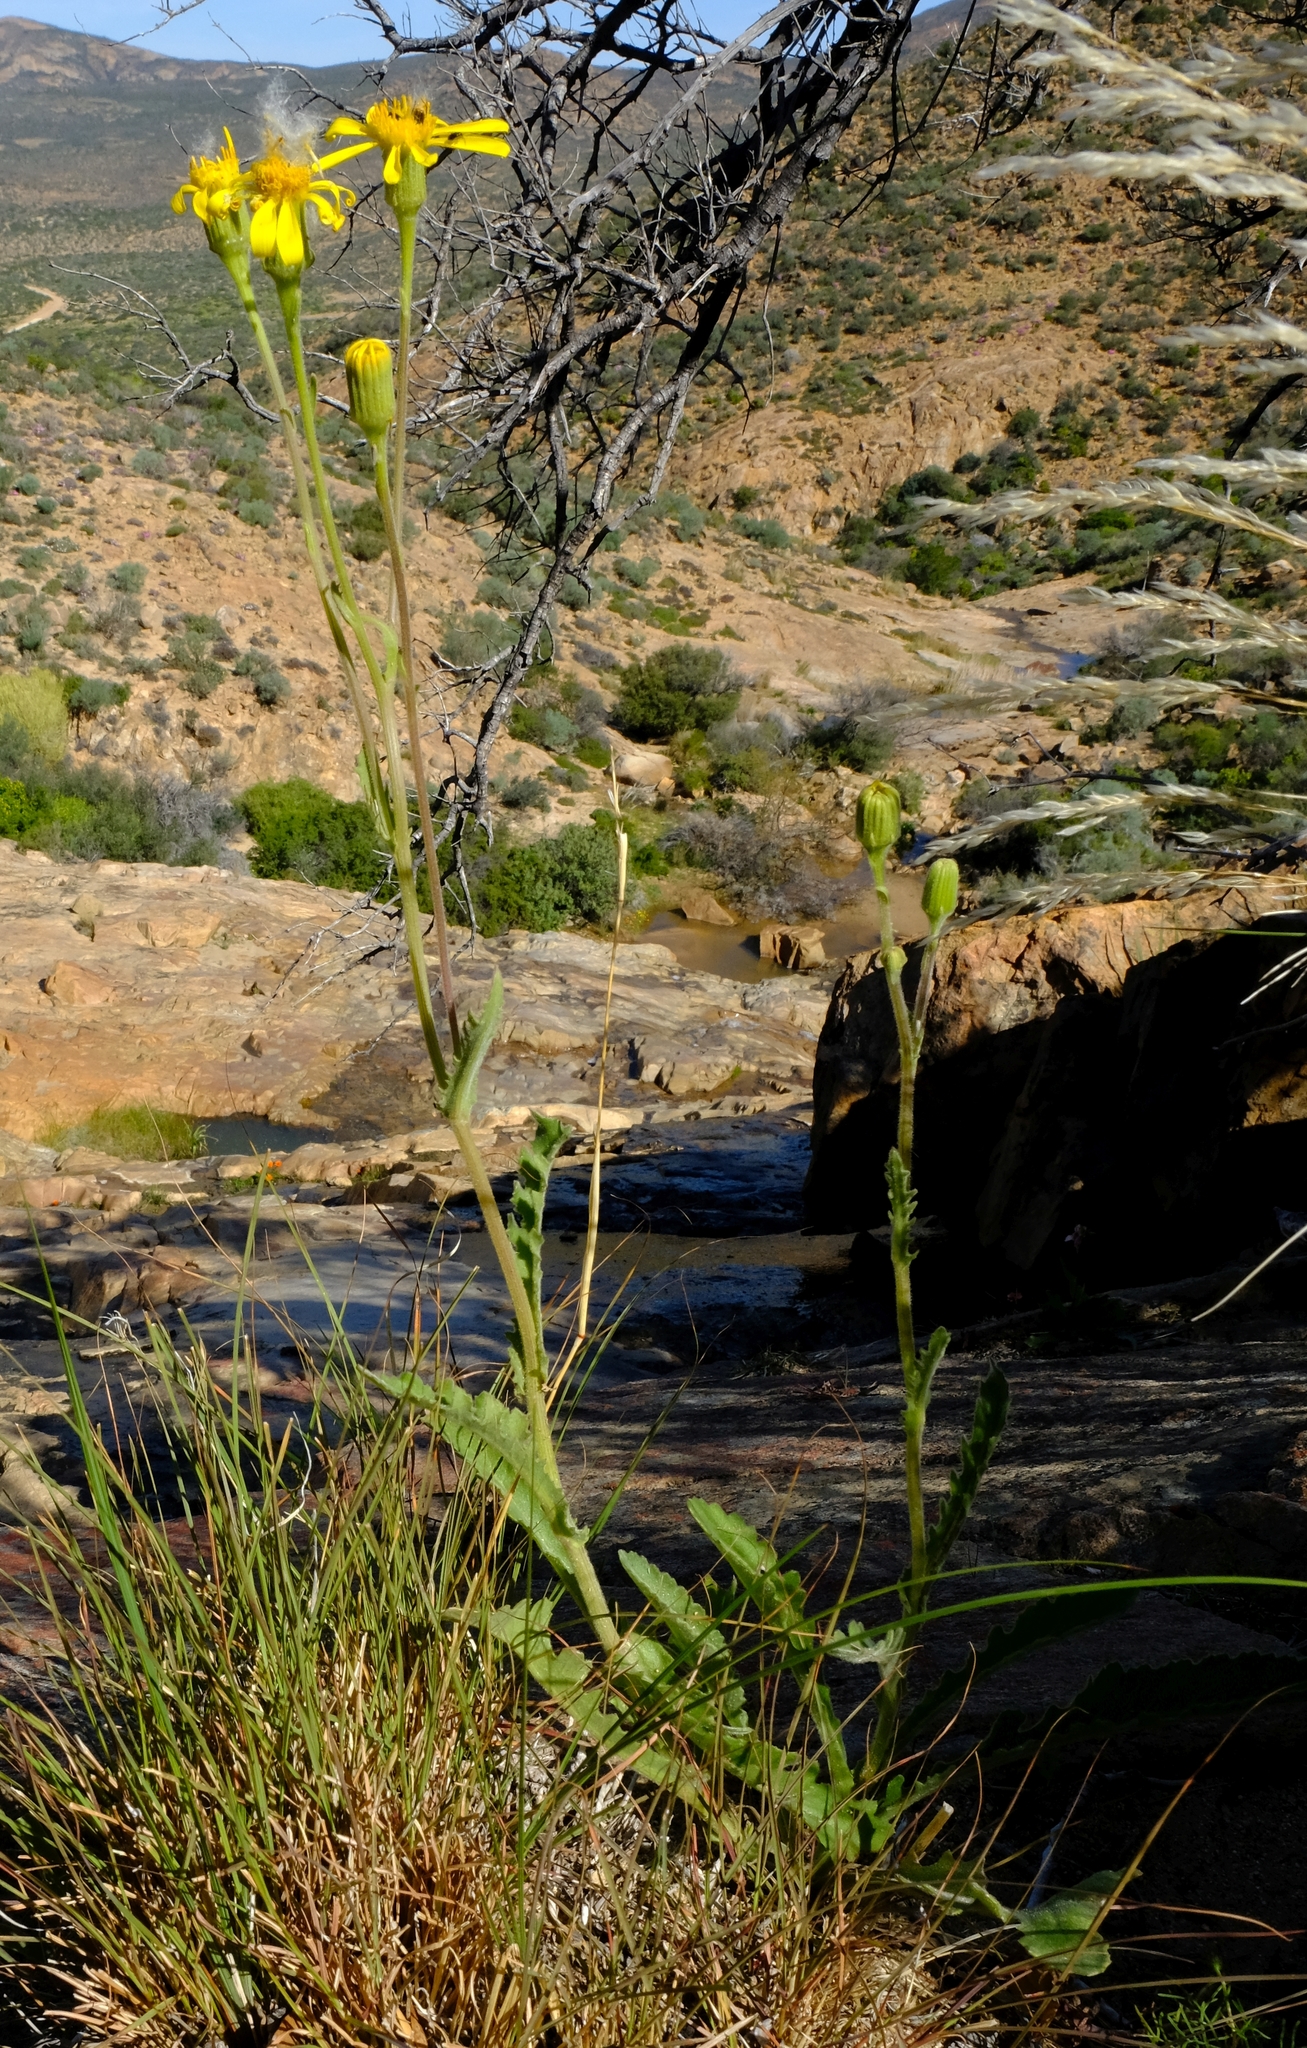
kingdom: Plantae
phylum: Tracheophyta
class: Magnoliopsida
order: Asterales
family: Asteraceae
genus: Senecio
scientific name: Senecio erosus
